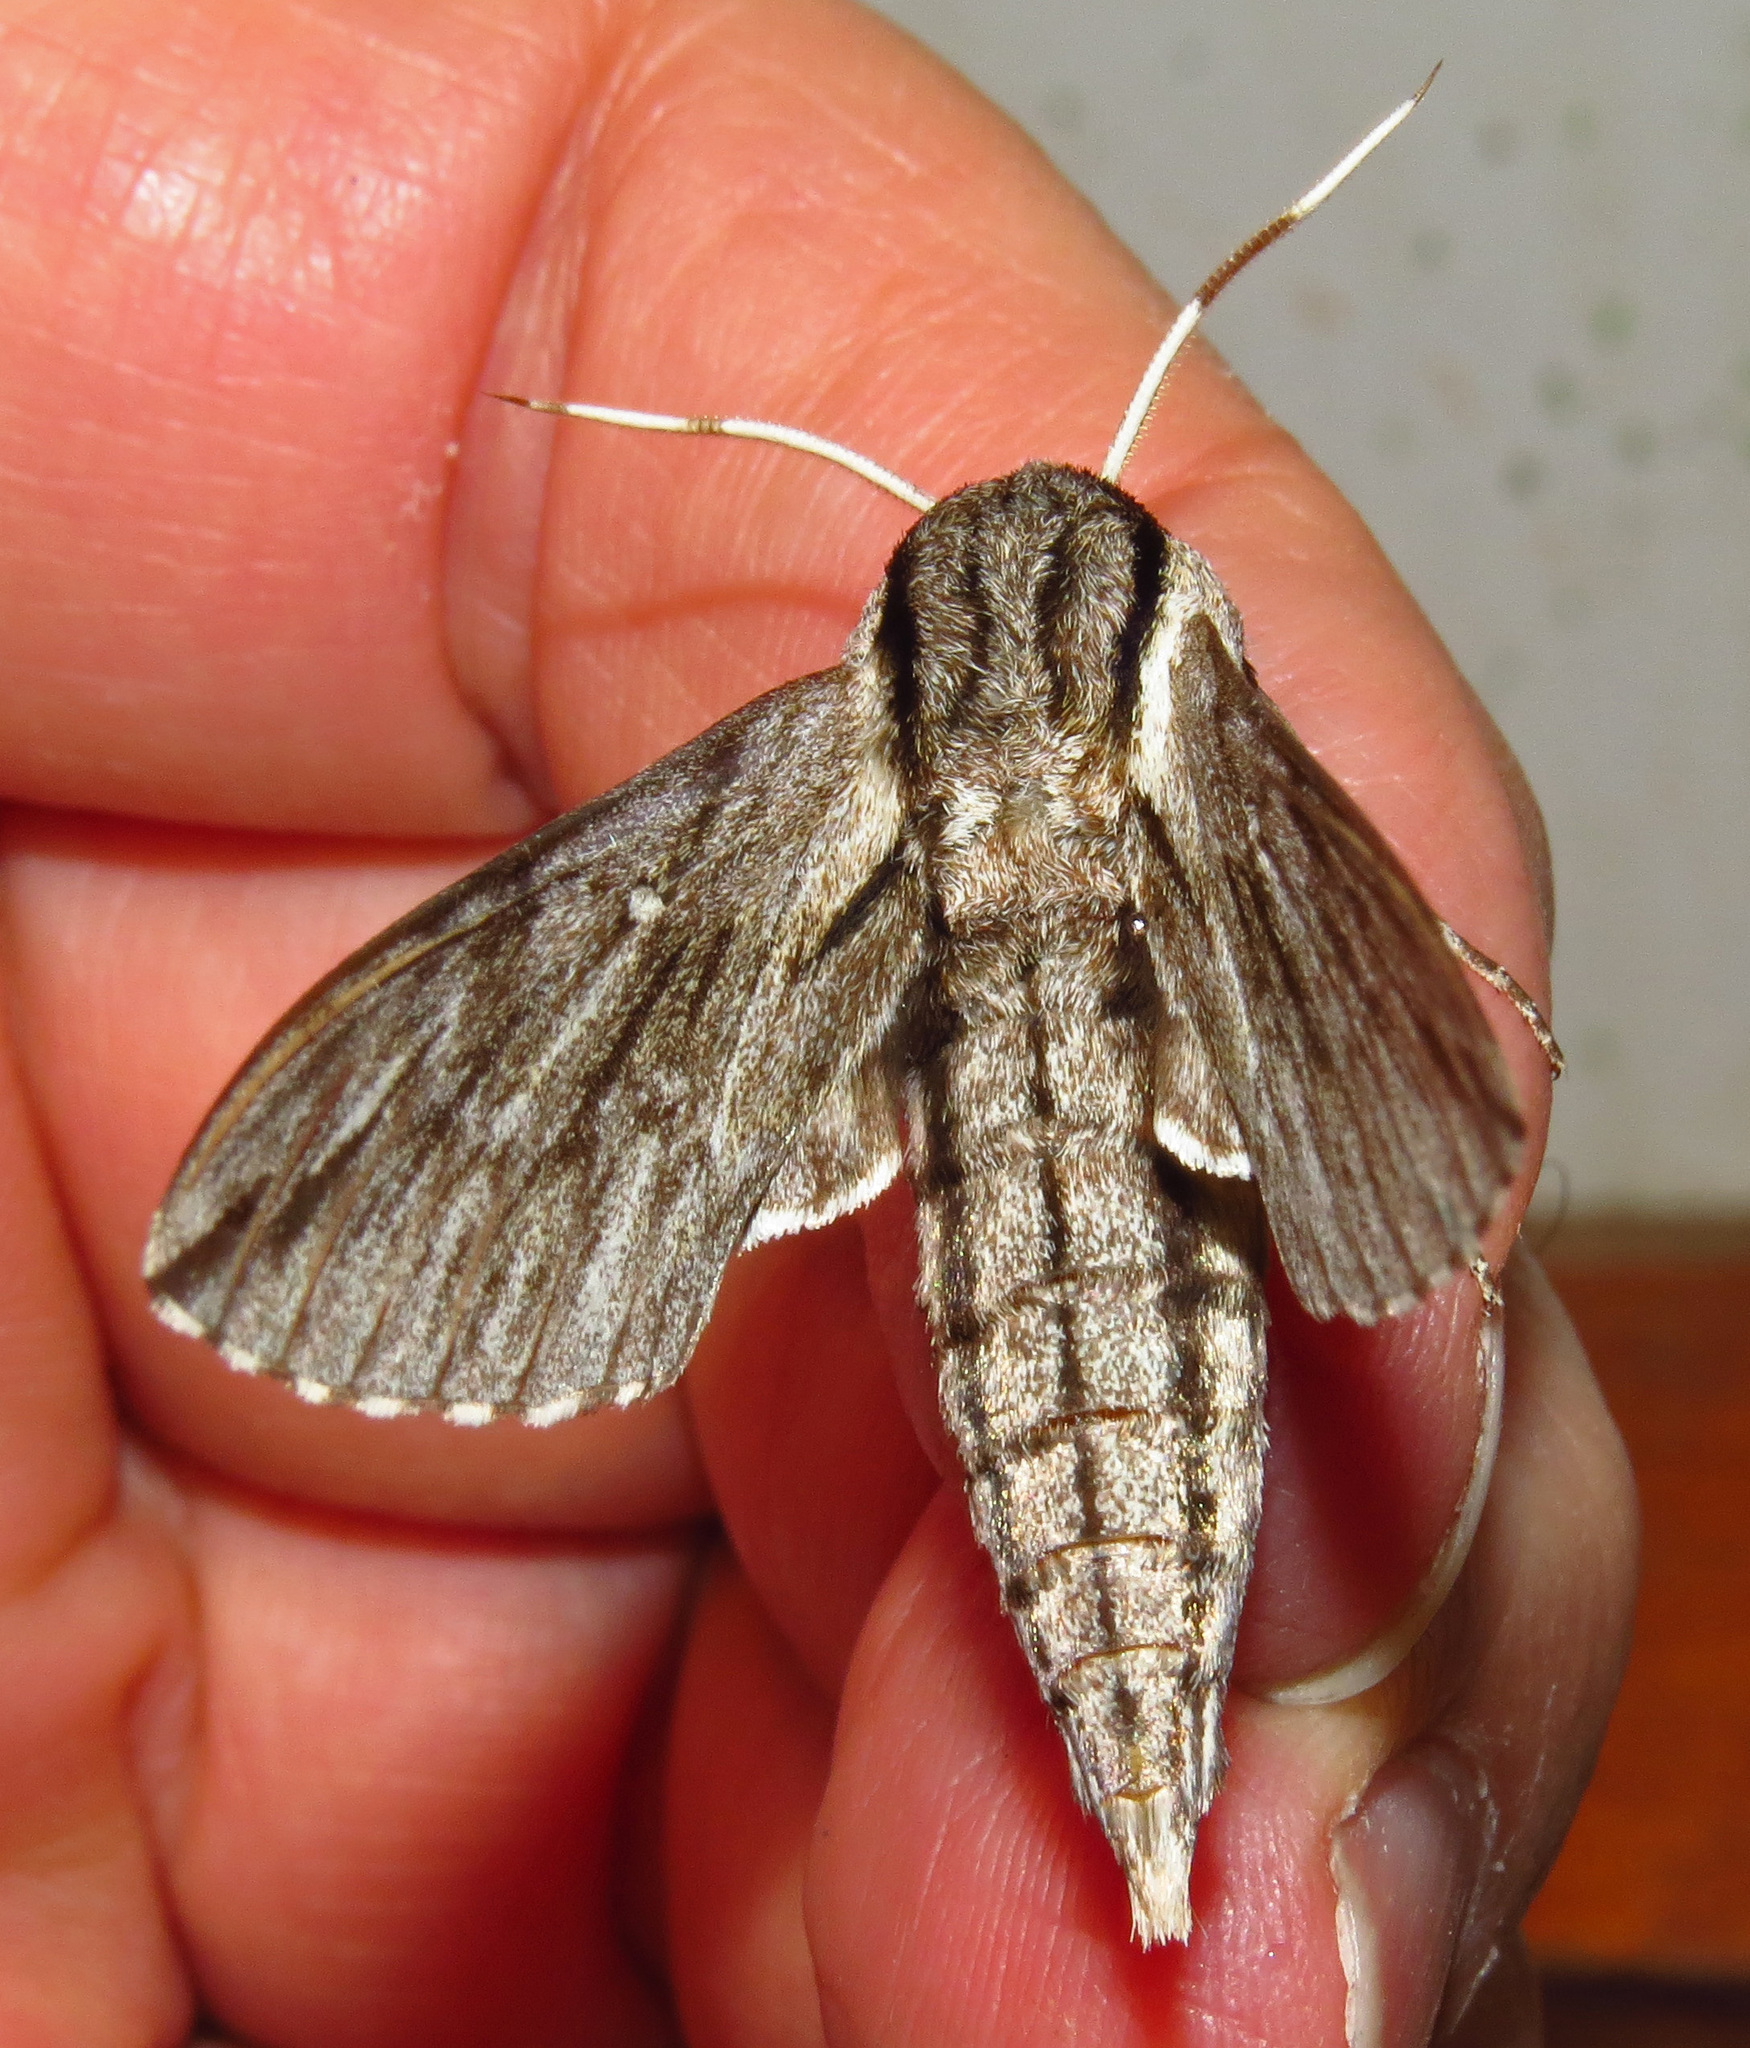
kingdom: Animalia
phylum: Arthropoda
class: Insecta
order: Lepidoptera
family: Sphingidae
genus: Paratrea
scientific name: Paratrea plebeja
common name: Plebian sphinx
